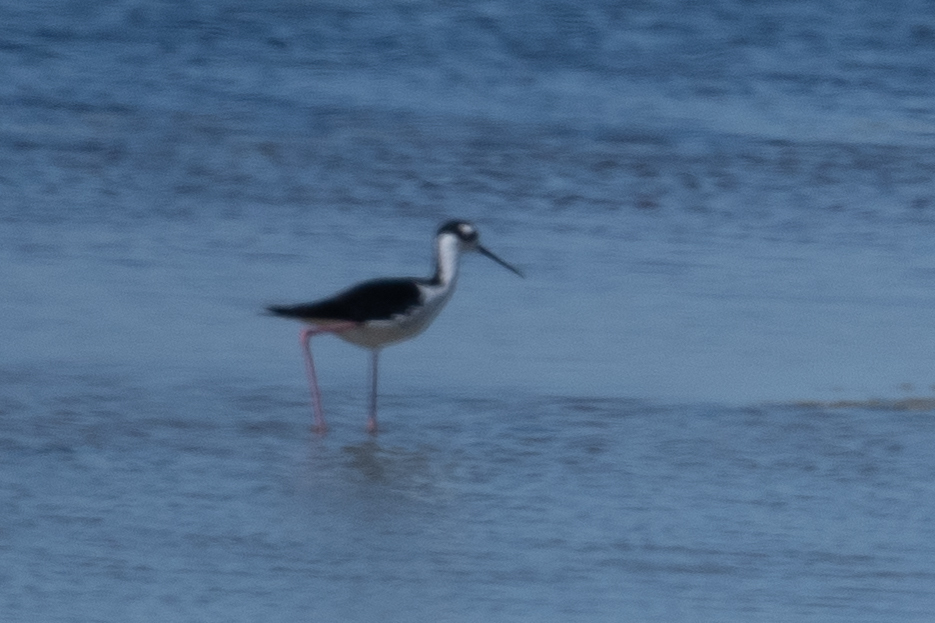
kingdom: Animalia
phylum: Chordata
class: Aves
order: Charadriiformes
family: Recurvirostridae
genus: Himantopus
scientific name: Himantopus mexicanus
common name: Black-necked stilt
